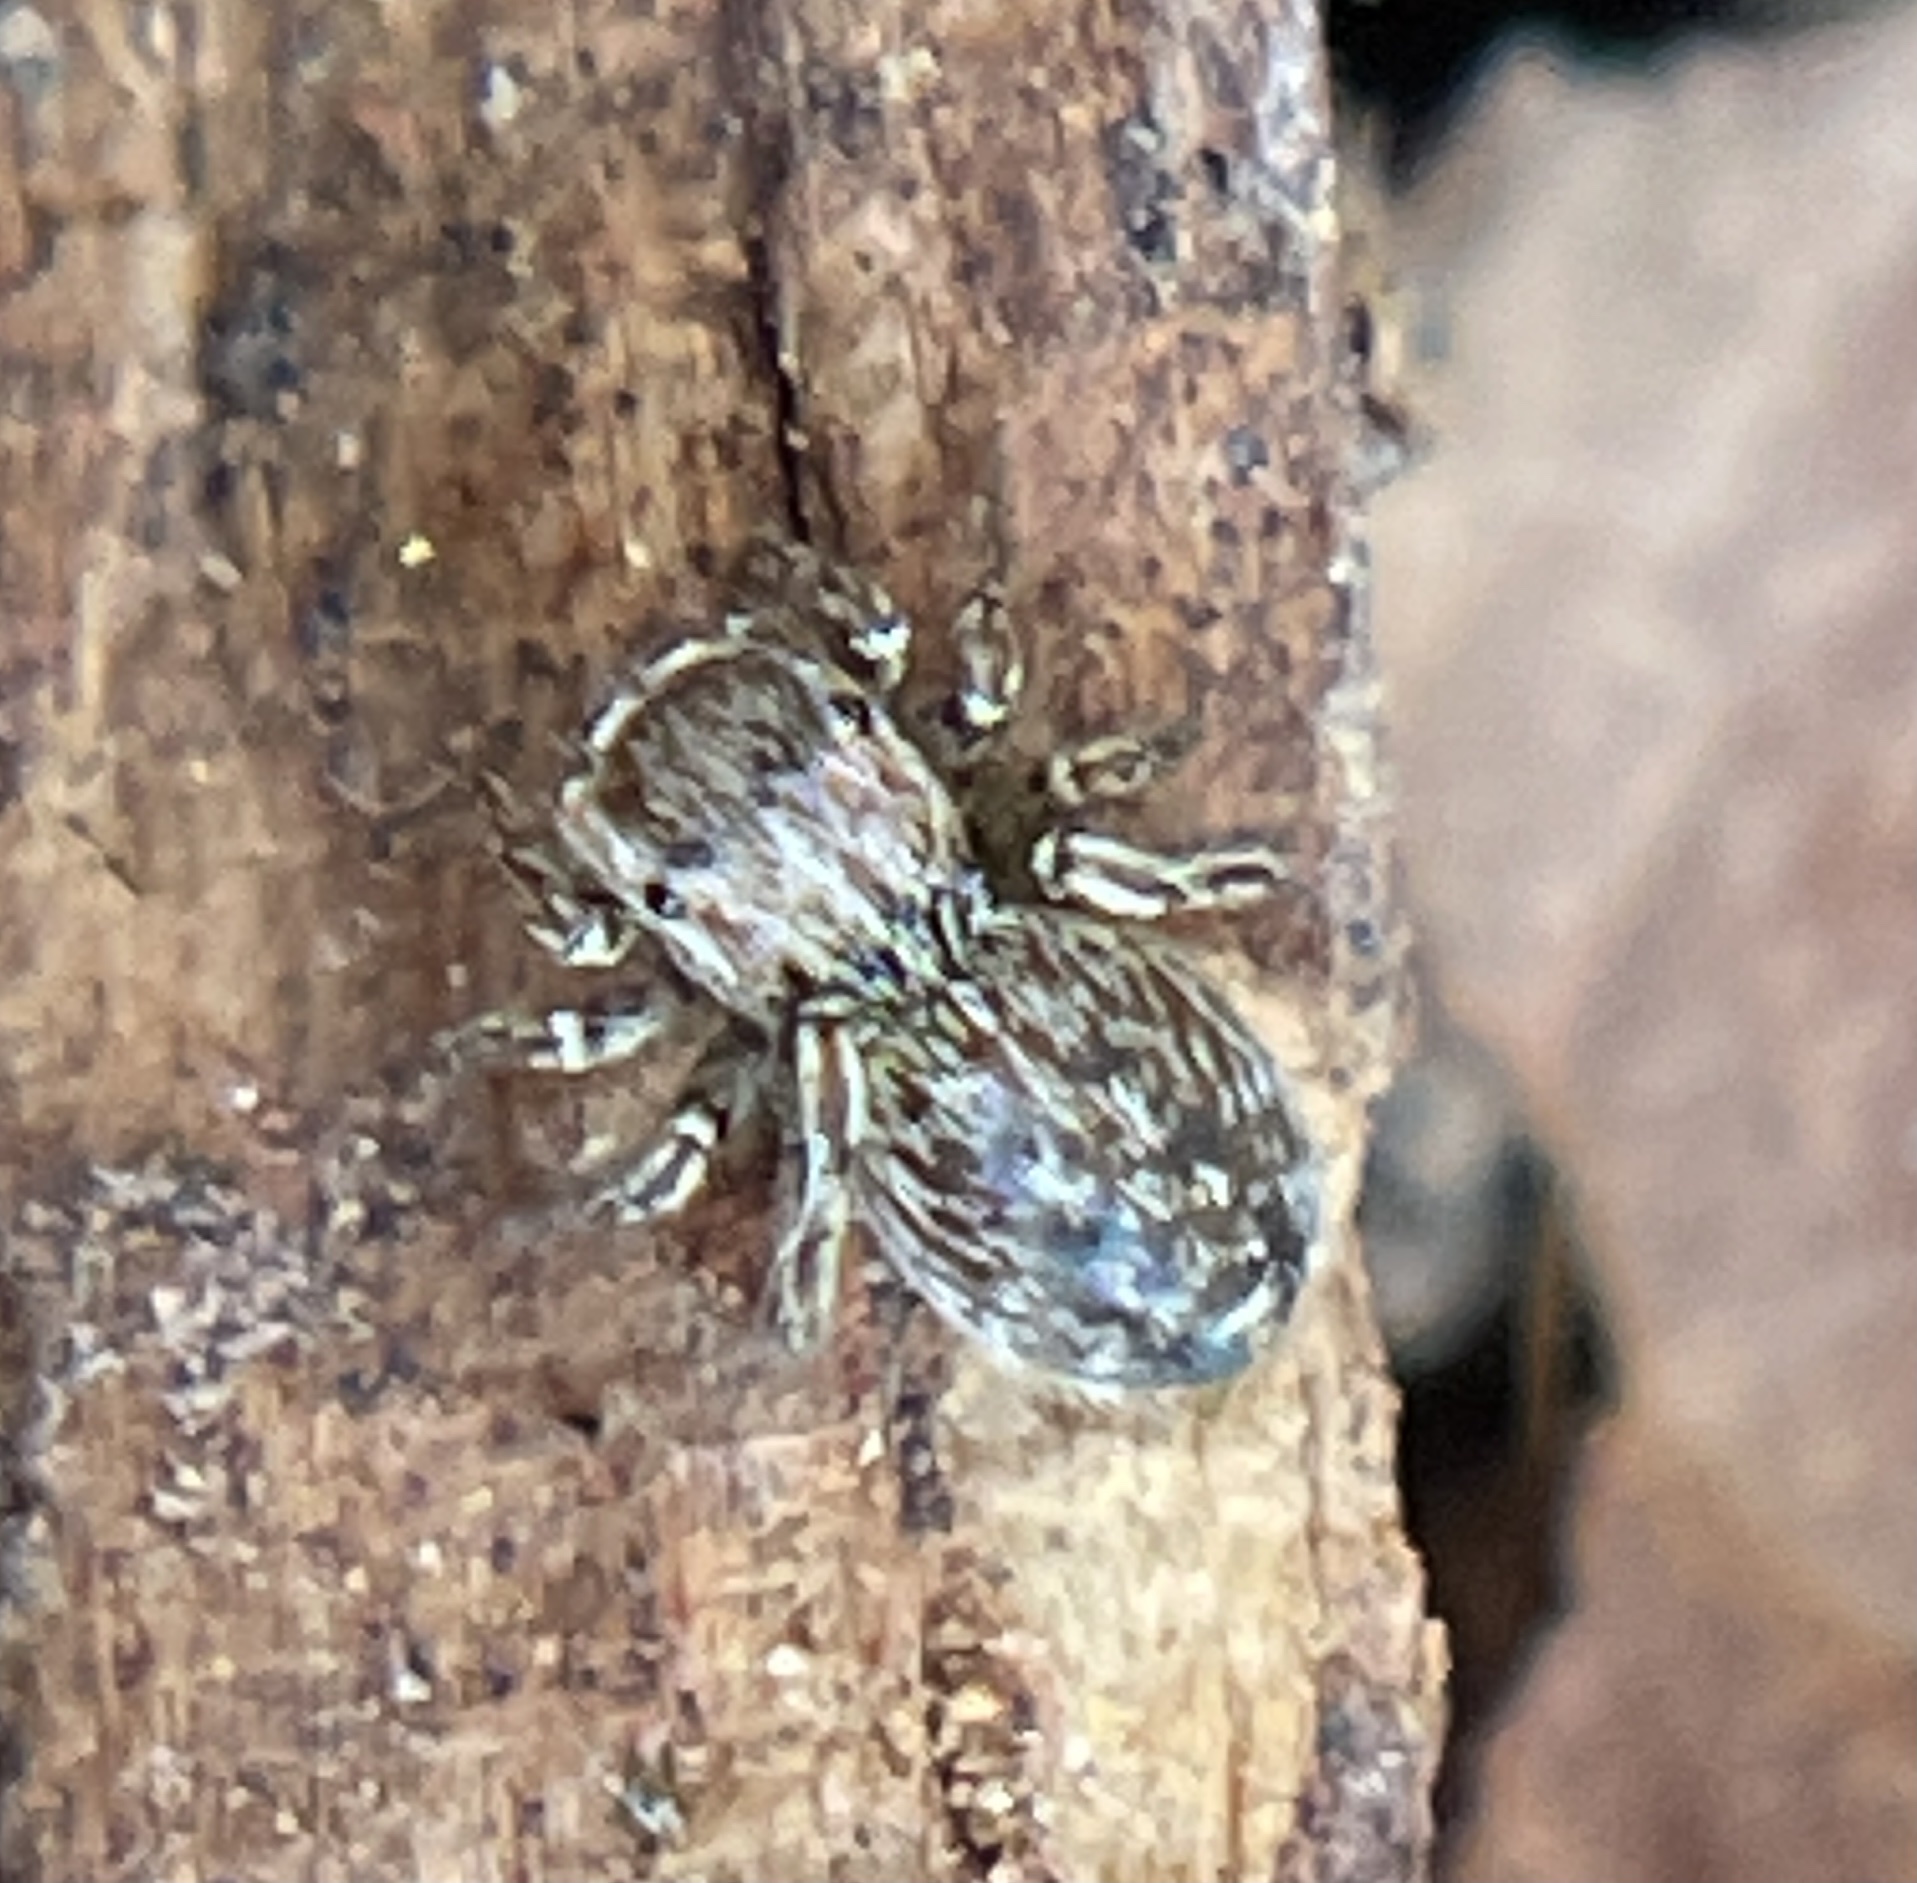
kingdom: Animalia
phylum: Arthropoda
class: Arachnida
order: Araneae
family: Salticidae
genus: Attinella
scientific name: Attinella dorsata
